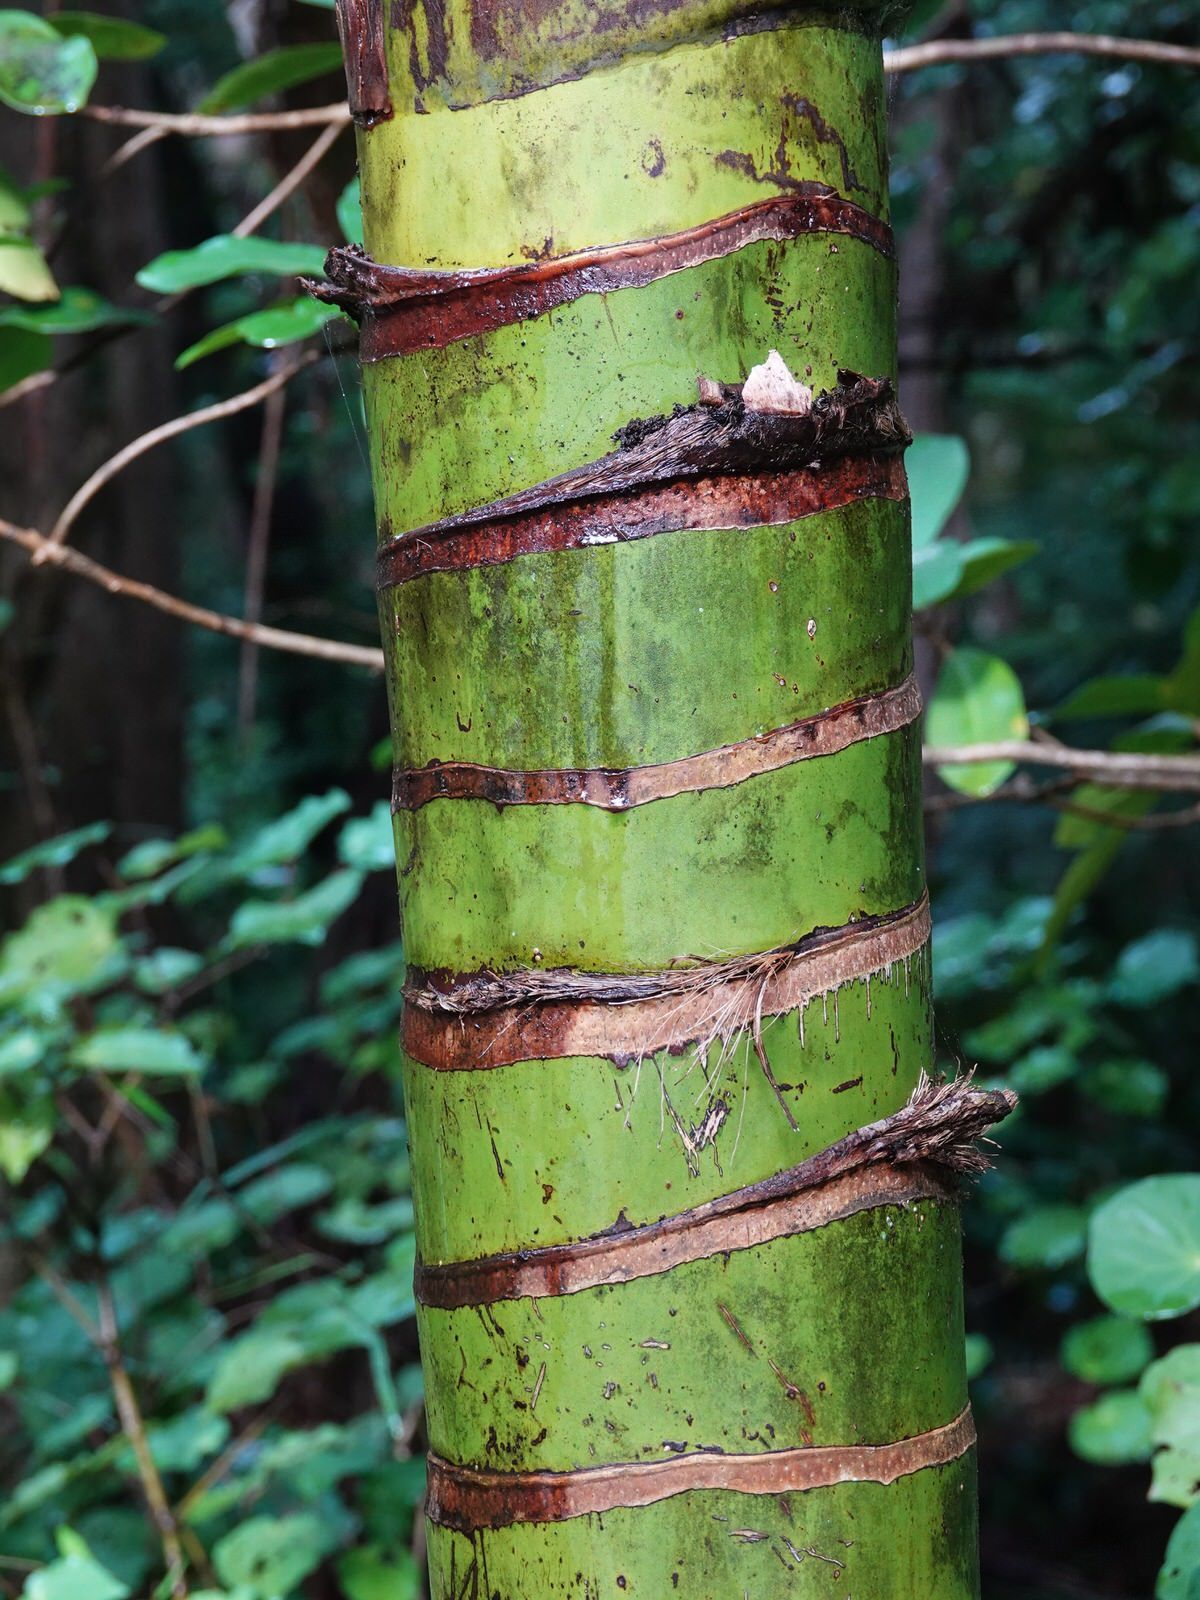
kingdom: Plantae
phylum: Tracheophyta
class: Liliopsida
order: Arecales
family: Arecaceae
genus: Rhopalostylis
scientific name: Rhopalostylis sapida
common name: Feather-duster palm
